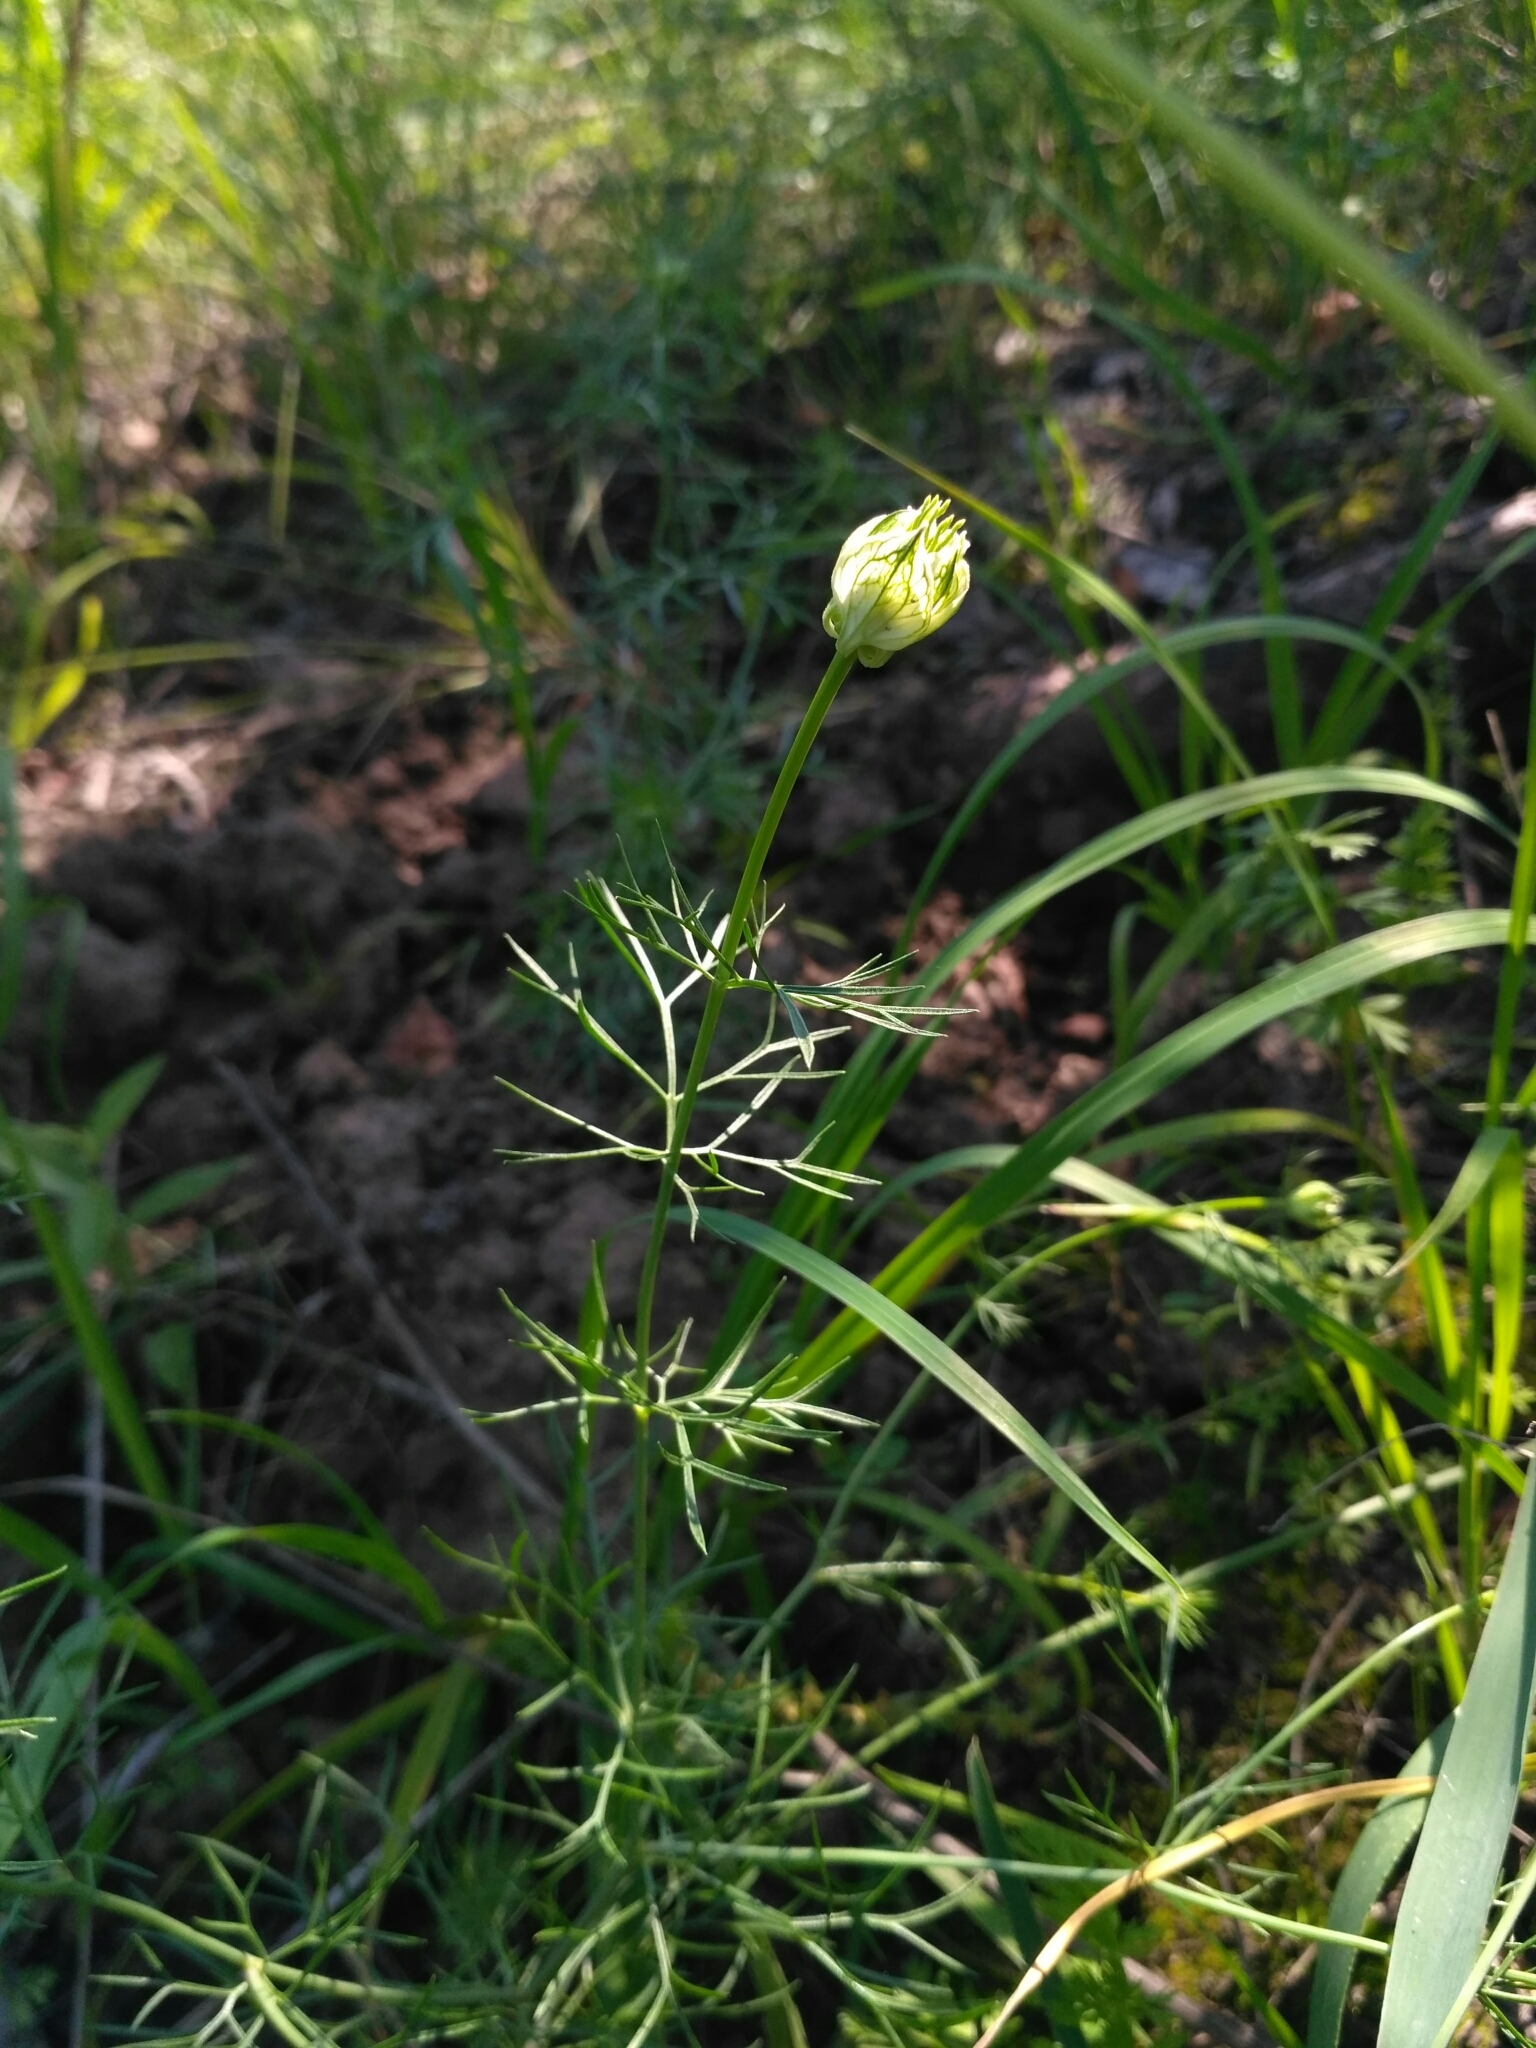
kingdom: Plantae
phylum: Tracheophyta
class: Magnoliopsida
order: Ranunculales
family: Ranunculaceae
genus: Nigella
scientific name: Nigella arvensis
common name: Wild fennel-flower
